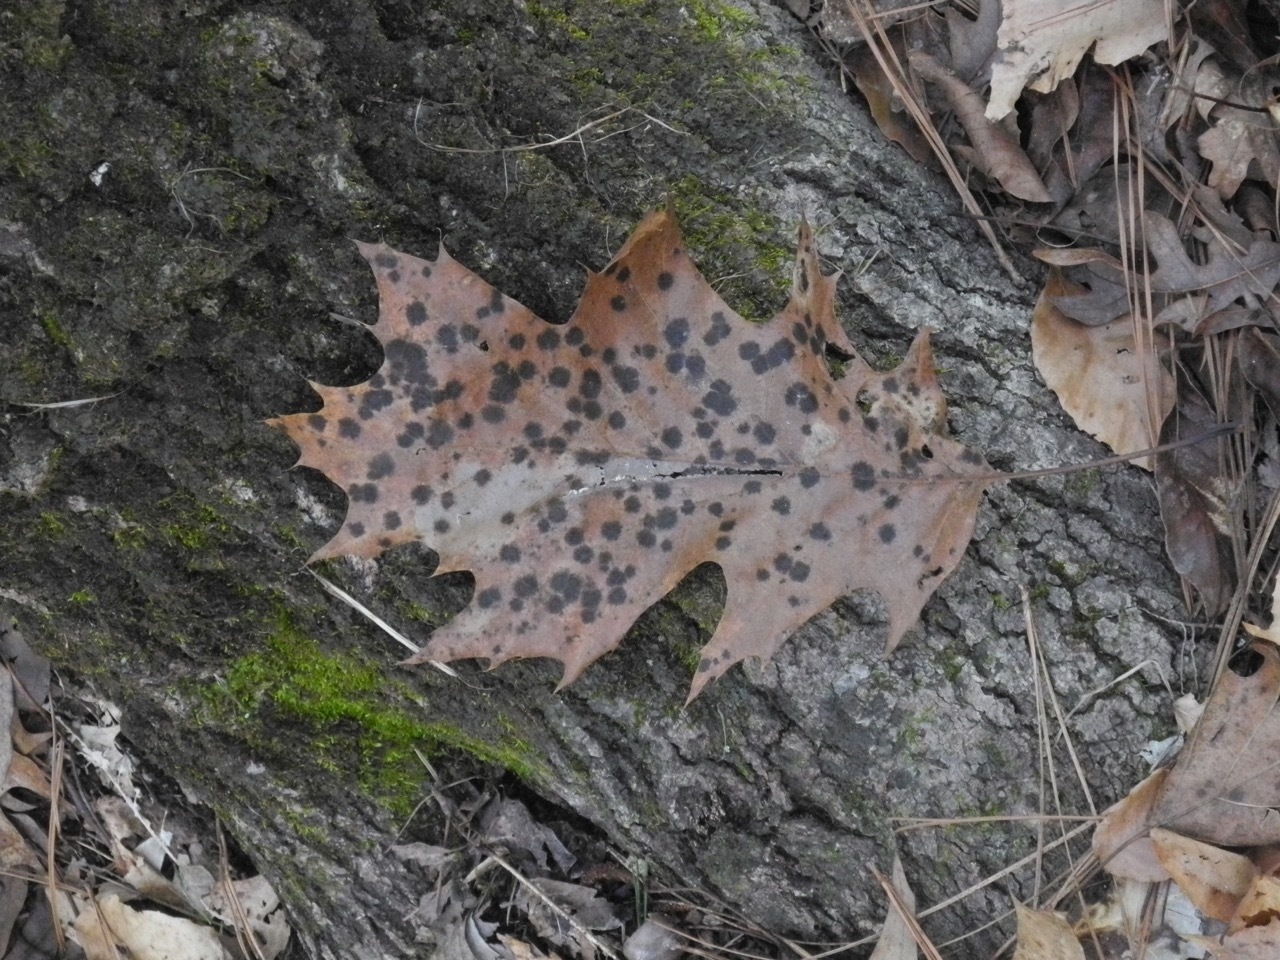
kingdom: Plantae
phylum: Tracheophyta
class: Magnoliopsida
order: Fagales
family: Fagaceae
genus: Quercus
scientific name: Quercus rubra
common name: Red oak
